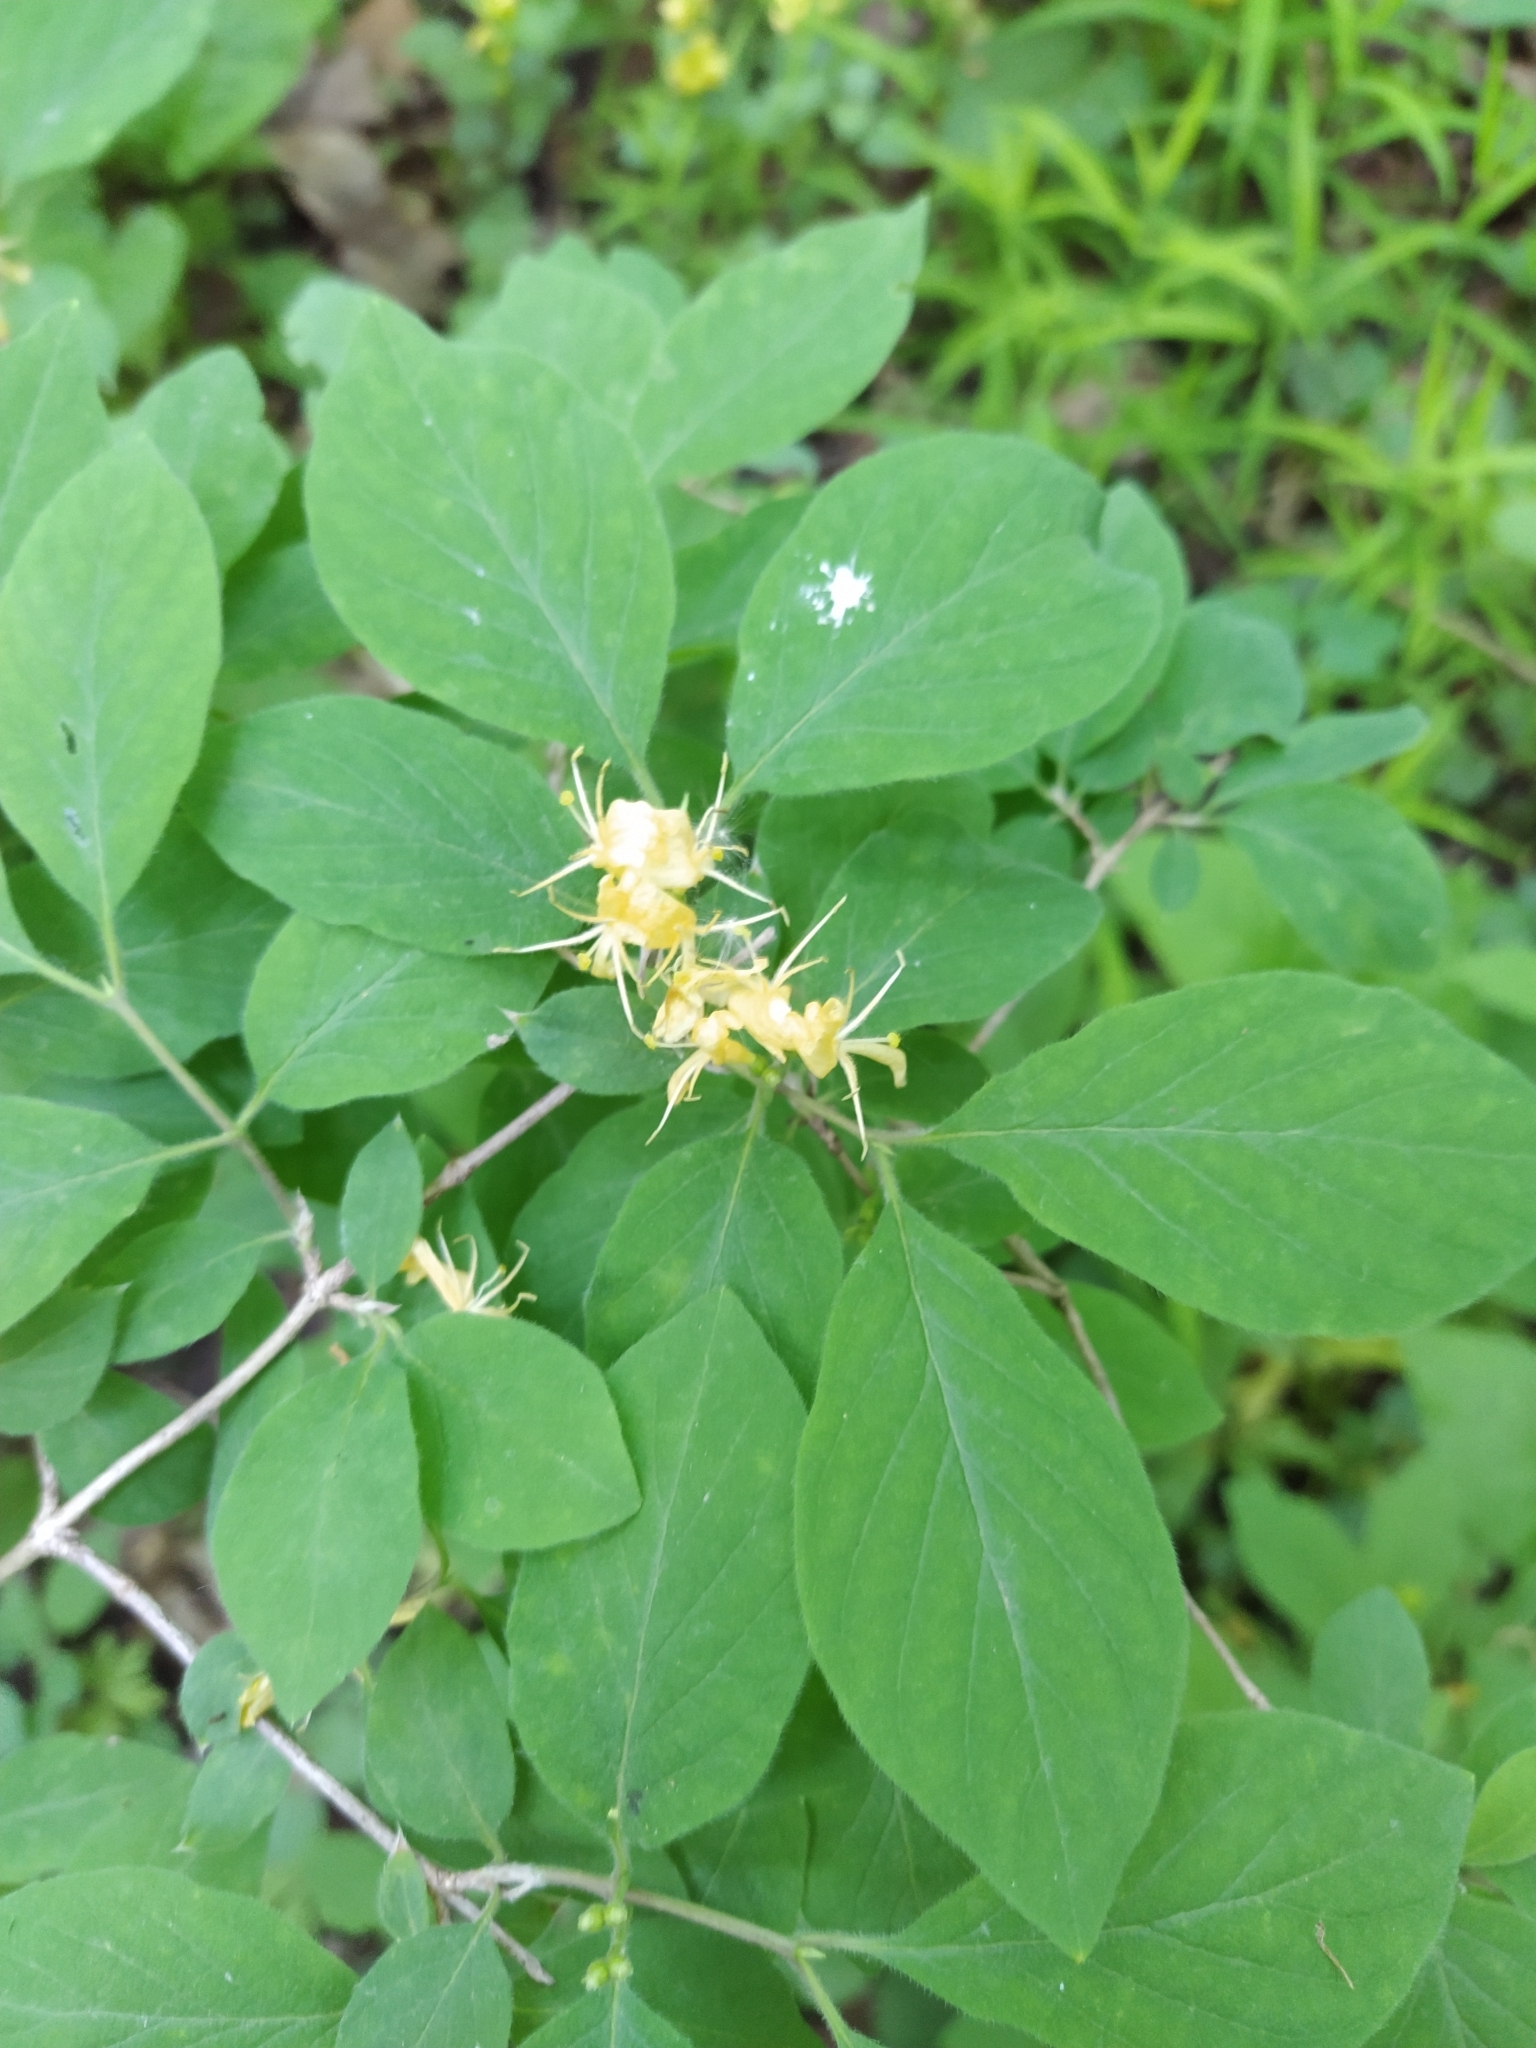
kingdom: Plantae
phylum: Tracheophyta
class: Magnoliopsida
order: Dipsacales
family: Caprifoliaceae
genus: Lonicera
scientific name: Lonicera xylosteum
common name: Fly honeysuckle
